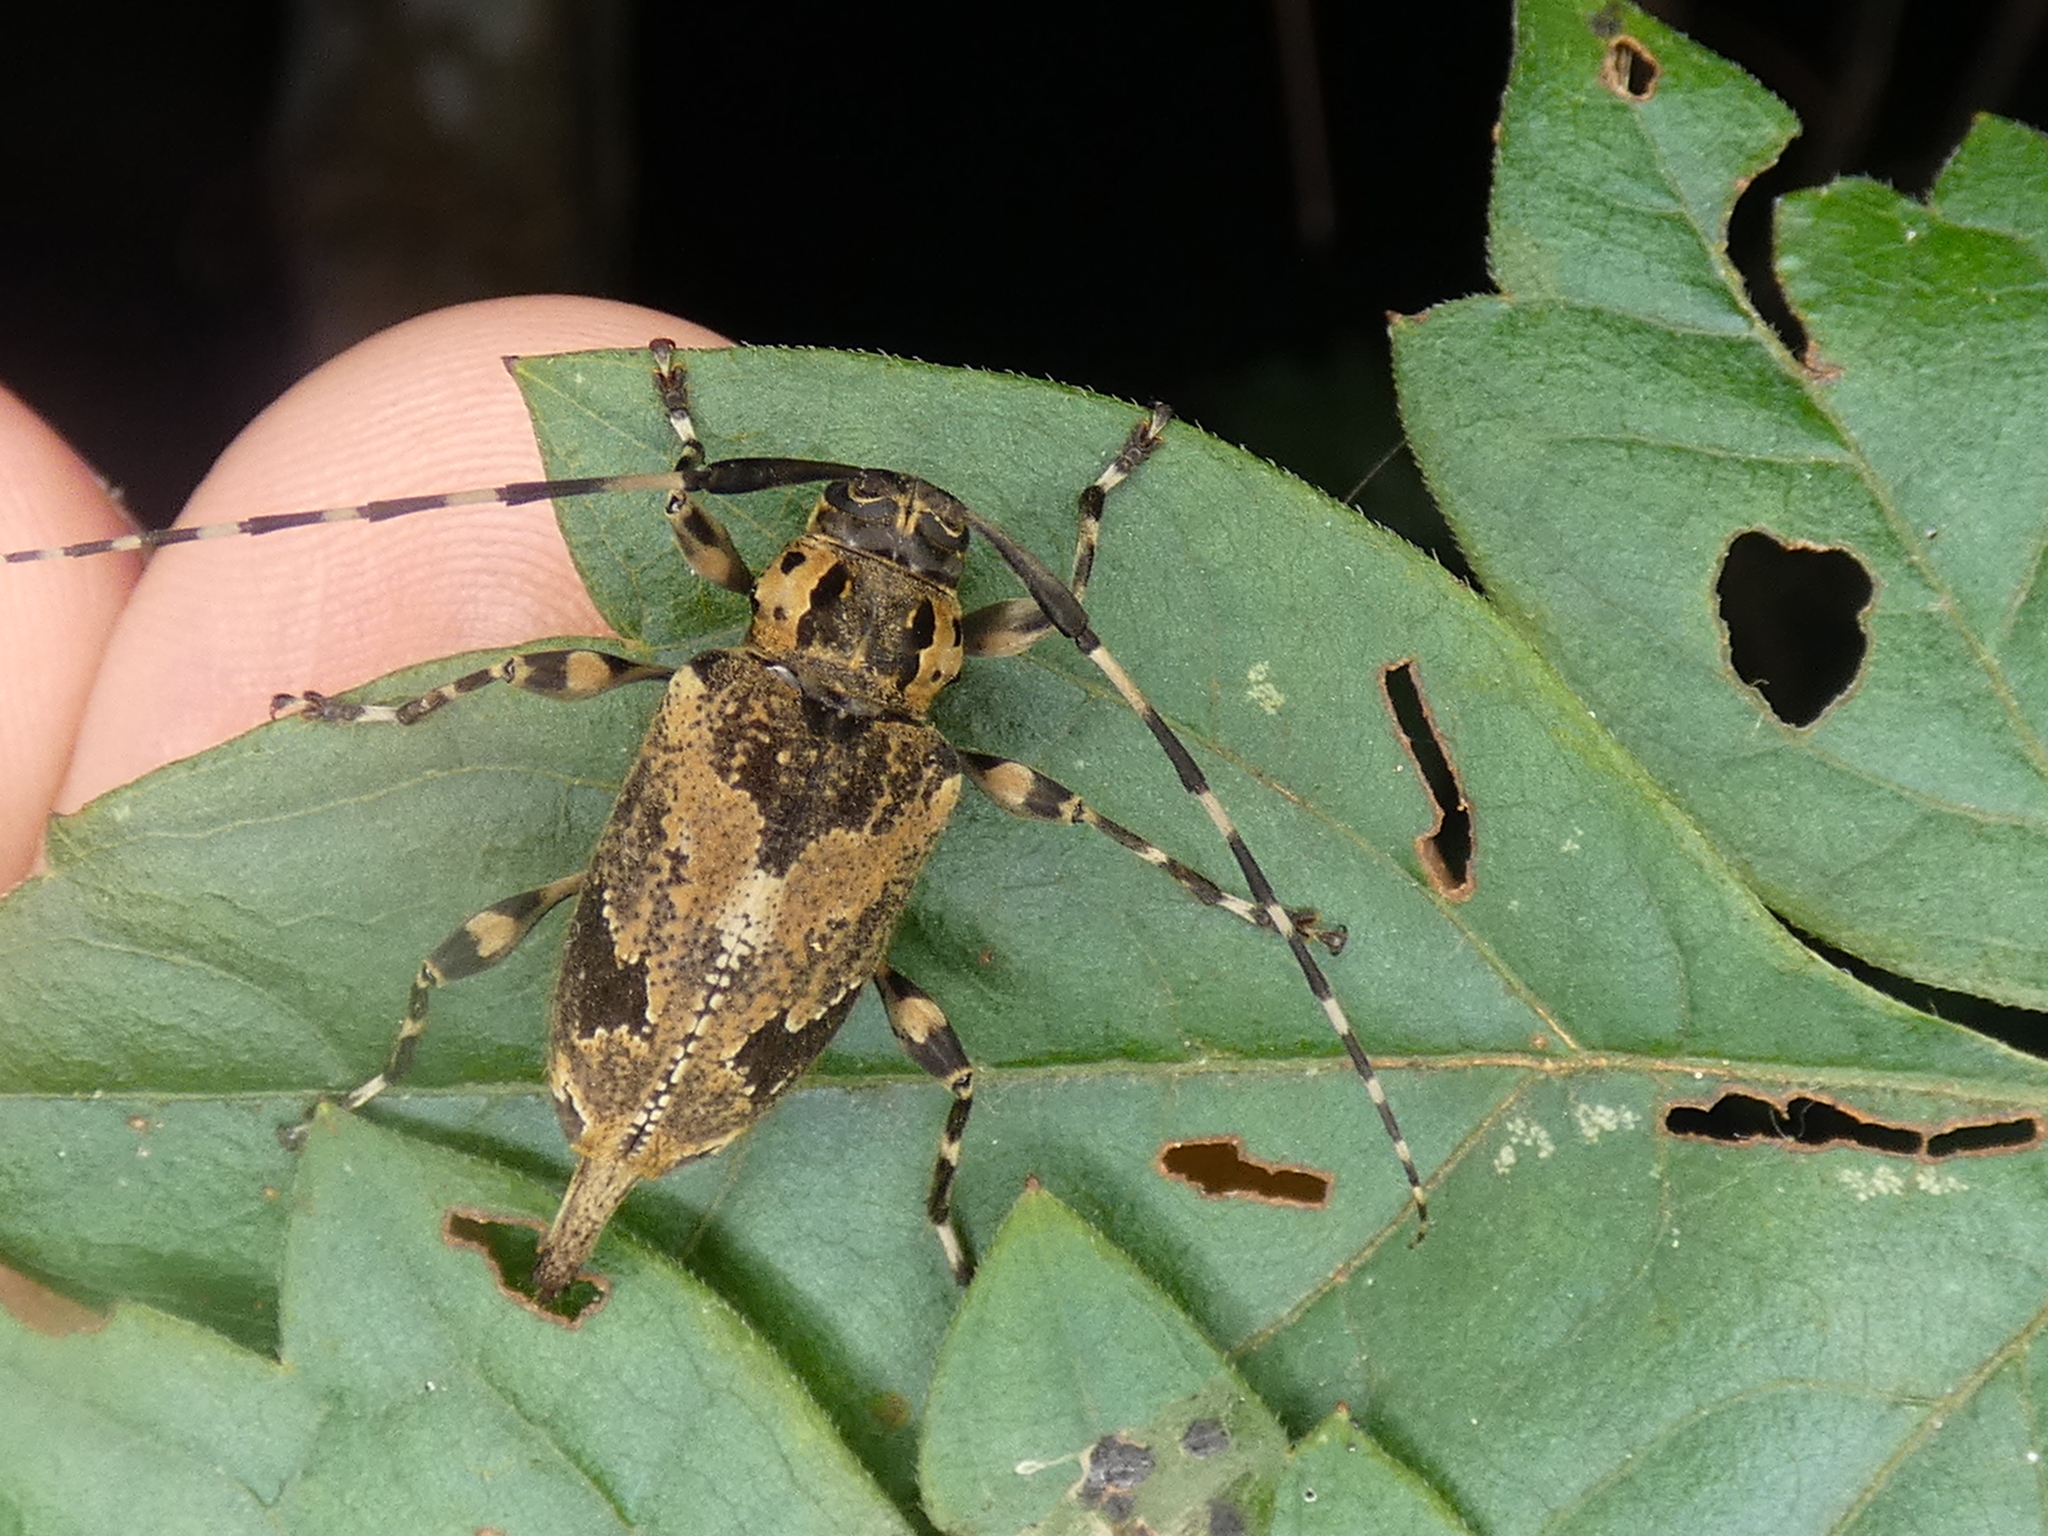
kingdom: Animalia
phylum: Arthropoda
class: Insecta
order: Coleoptera
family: Cerambycidae
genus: Graphisurus
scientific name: Graphisurus triangulifer
